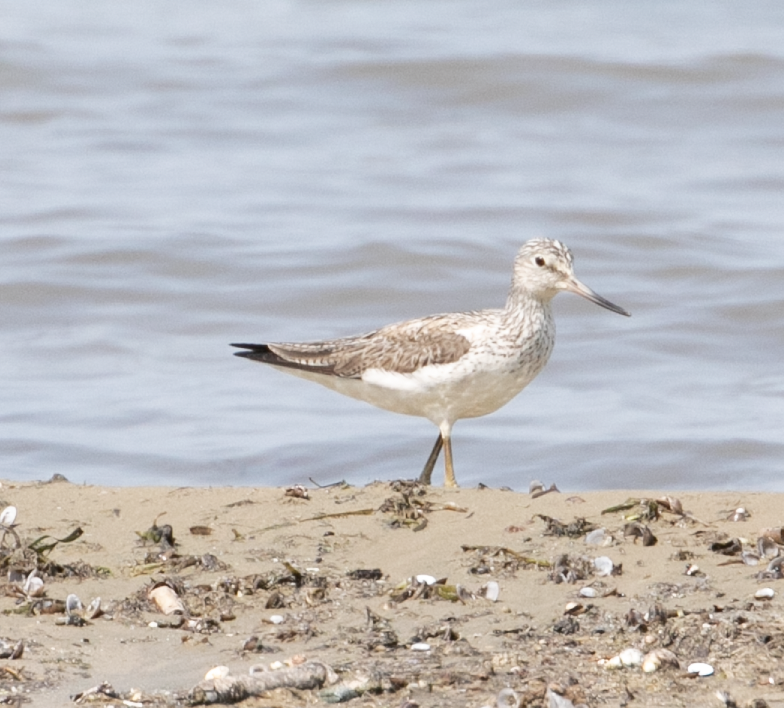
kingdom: Animalia
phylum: Chordata
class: Aves
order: Charadriiformes
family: Scolopacidae
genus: Tringa
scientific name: Tringa nebularia
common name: Common greenshank
